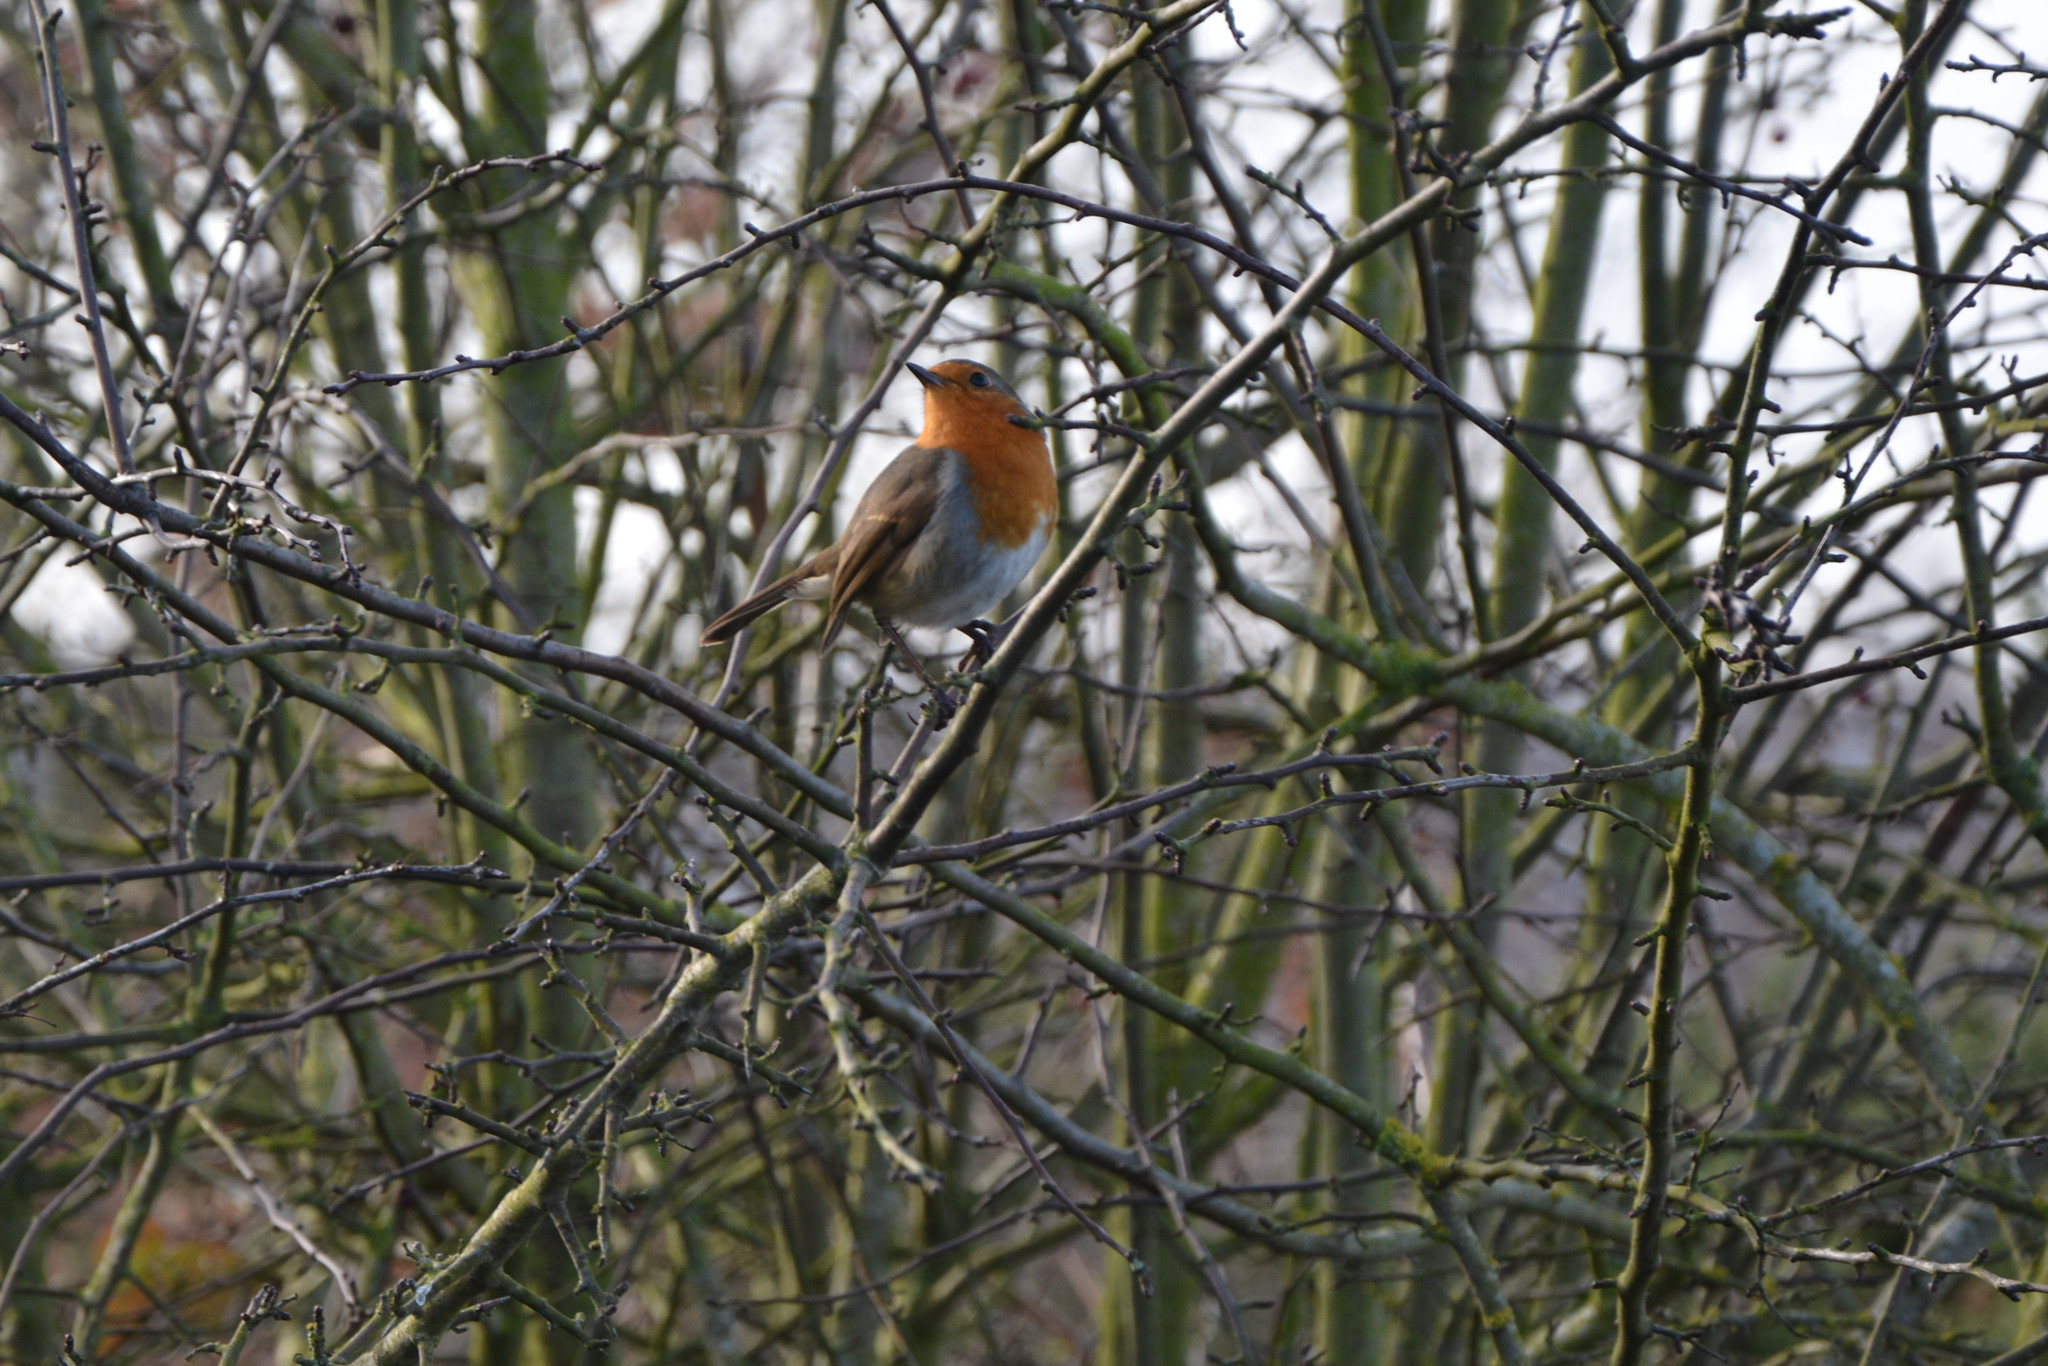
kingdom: Animalia
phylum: Chordata
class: Aves
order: Passeriformes
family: Muscicapidae
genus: Erithacus
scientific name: Erithacus rubecula
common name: European robin
